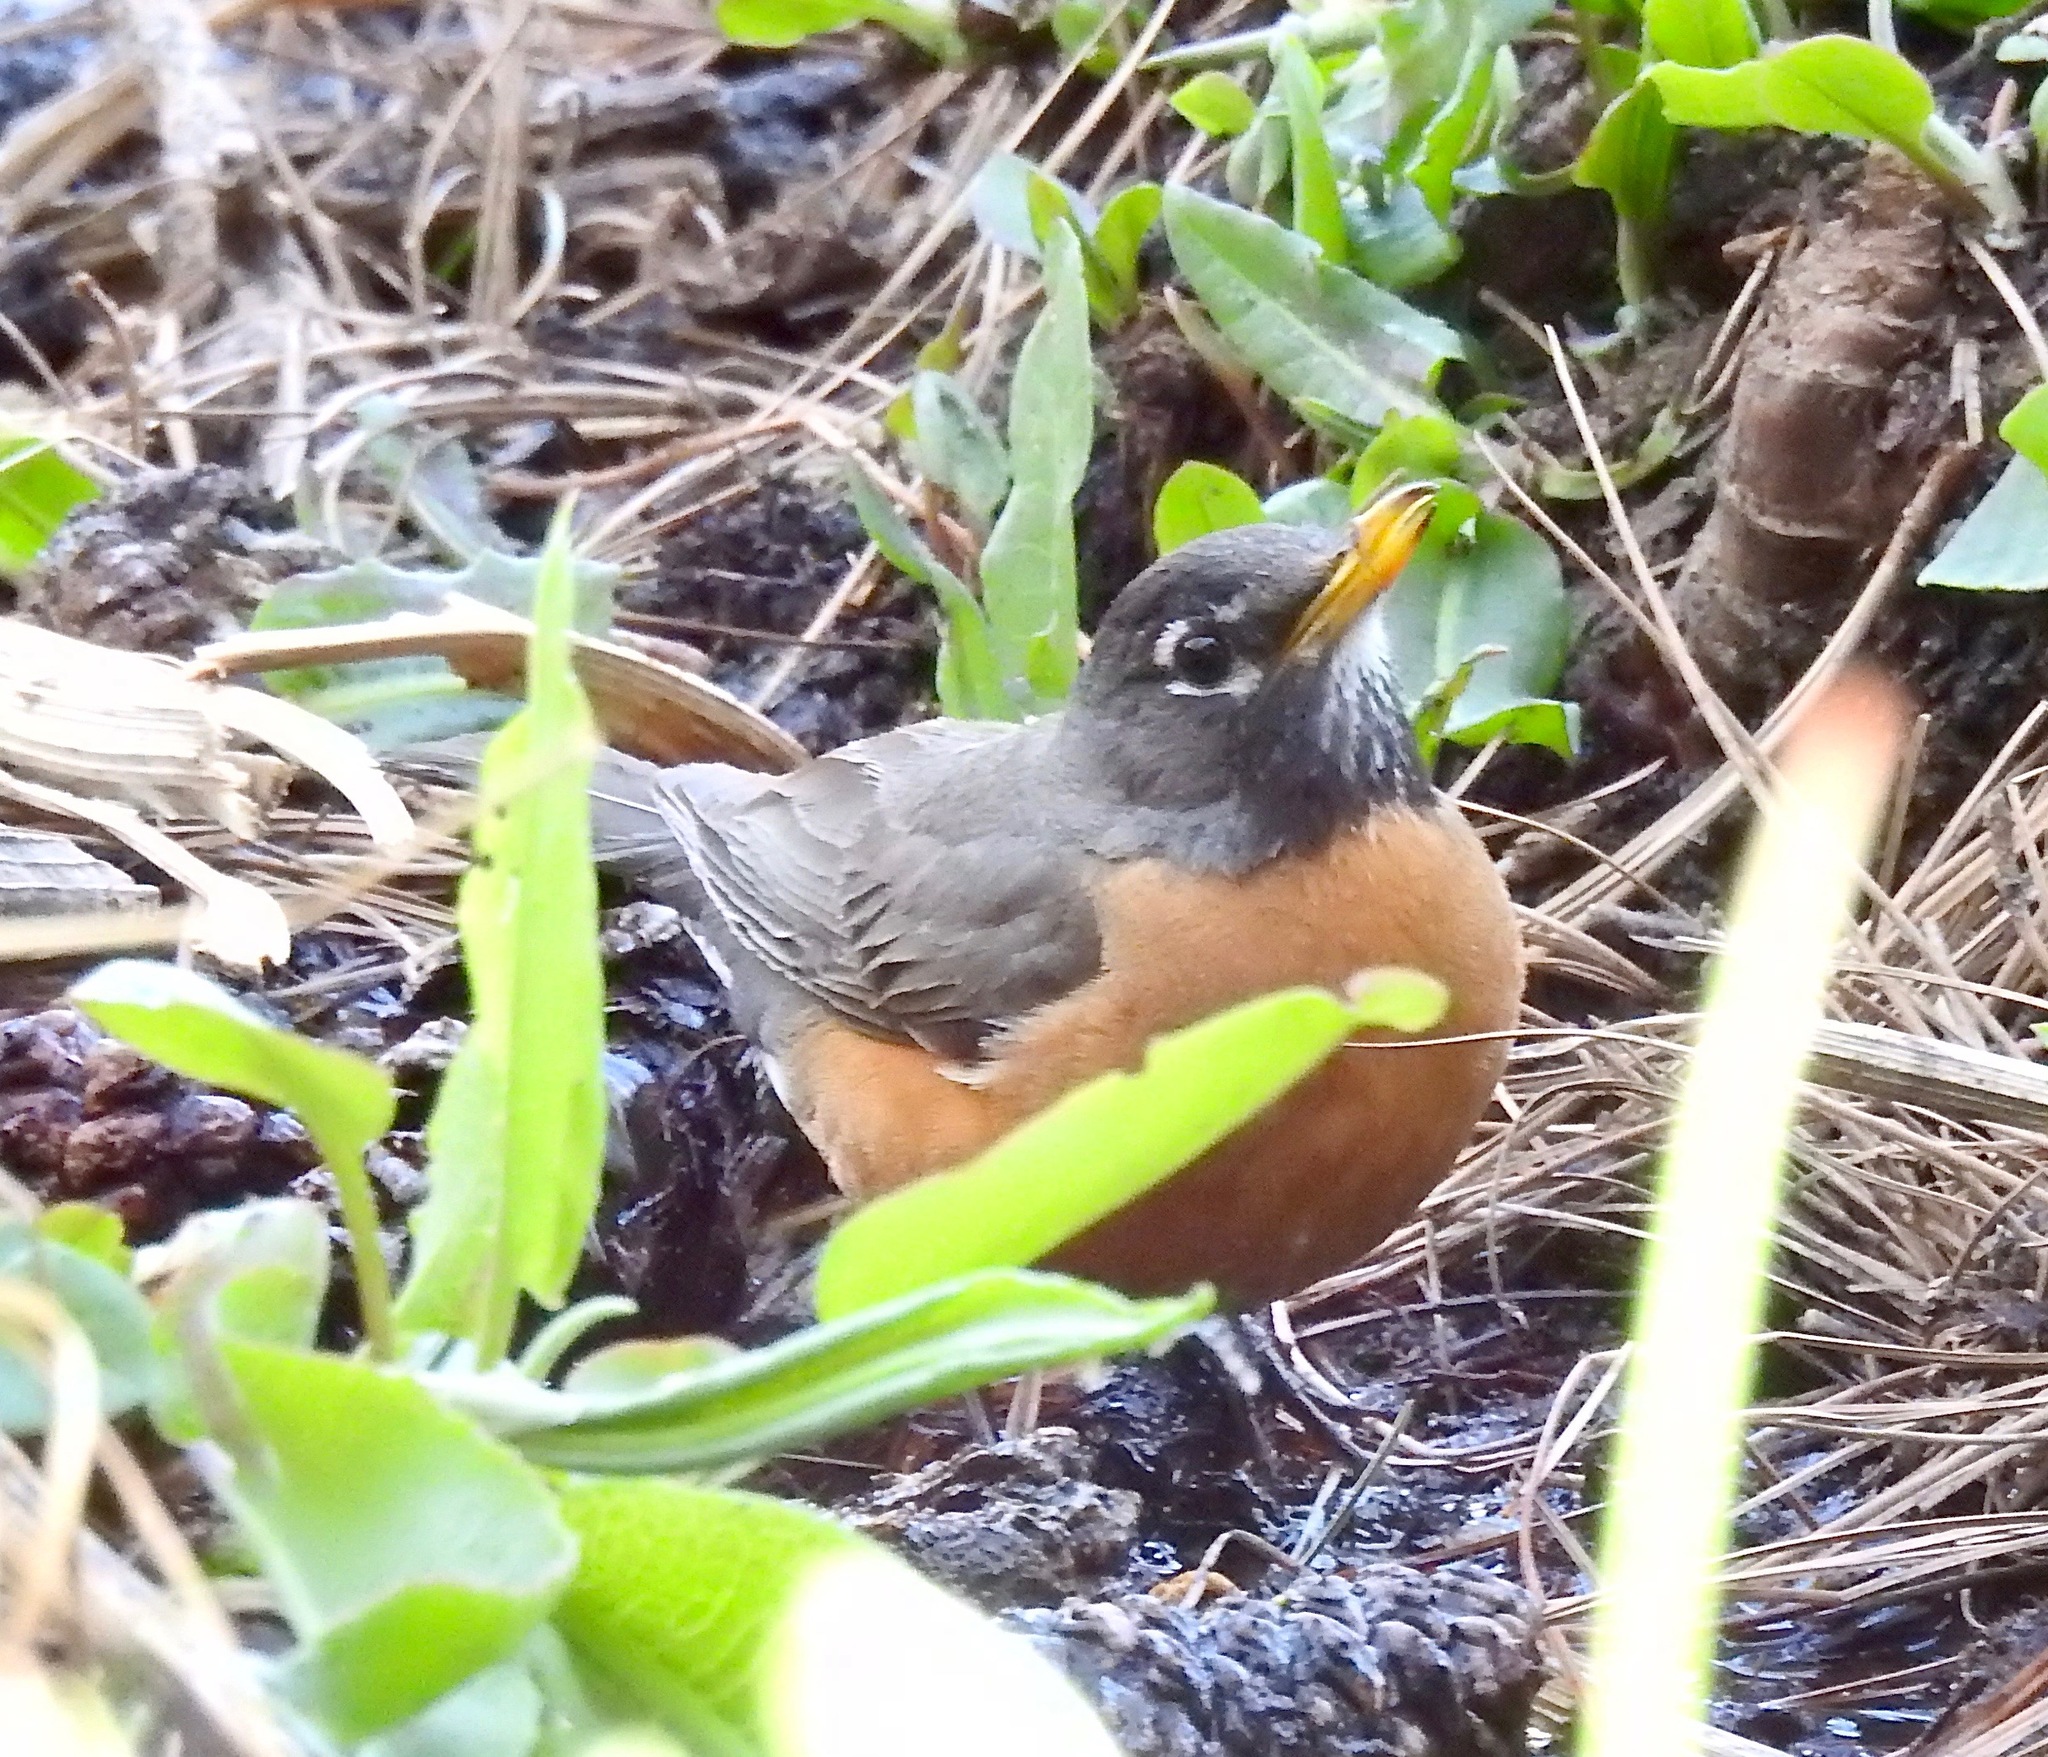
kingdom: Animalia
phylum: Chordata
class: Aves
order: Passeriformes
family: Turdidae
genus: Turdus
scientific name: Turdus migratorius
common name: American robin
